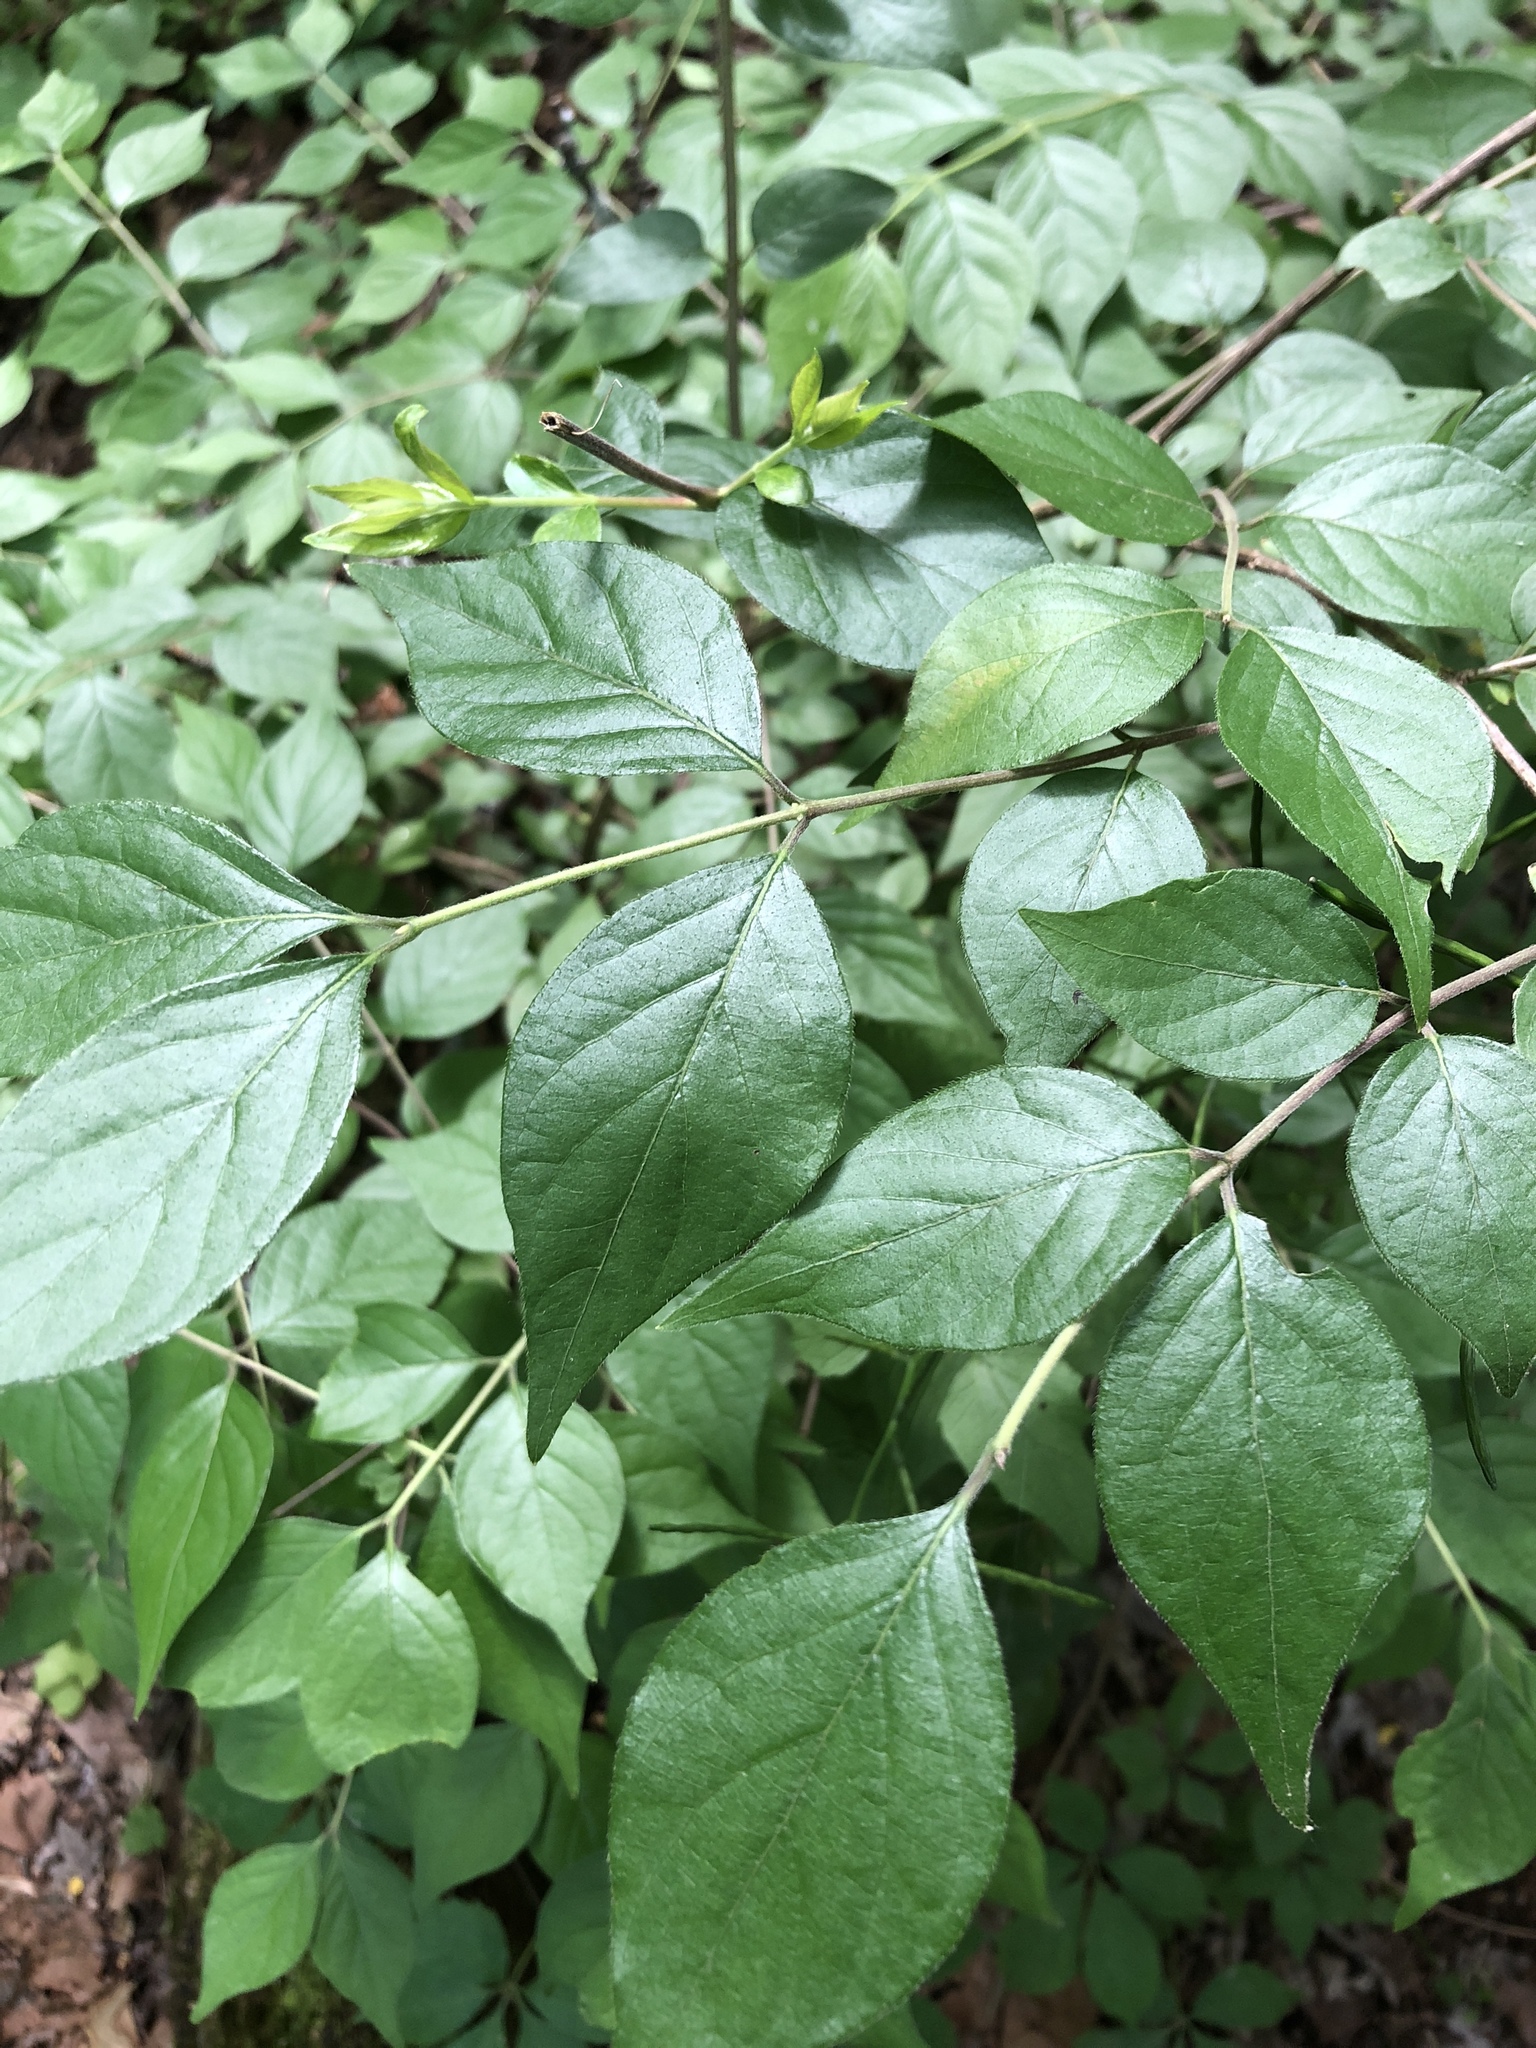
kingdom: Plantae
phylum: Tracheophyta
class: Magnoliopsida
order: Dipsacales
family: Caprifoliaceae
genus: Lonicera
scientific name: Lonicera maackii
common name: Amur honeysuckle
